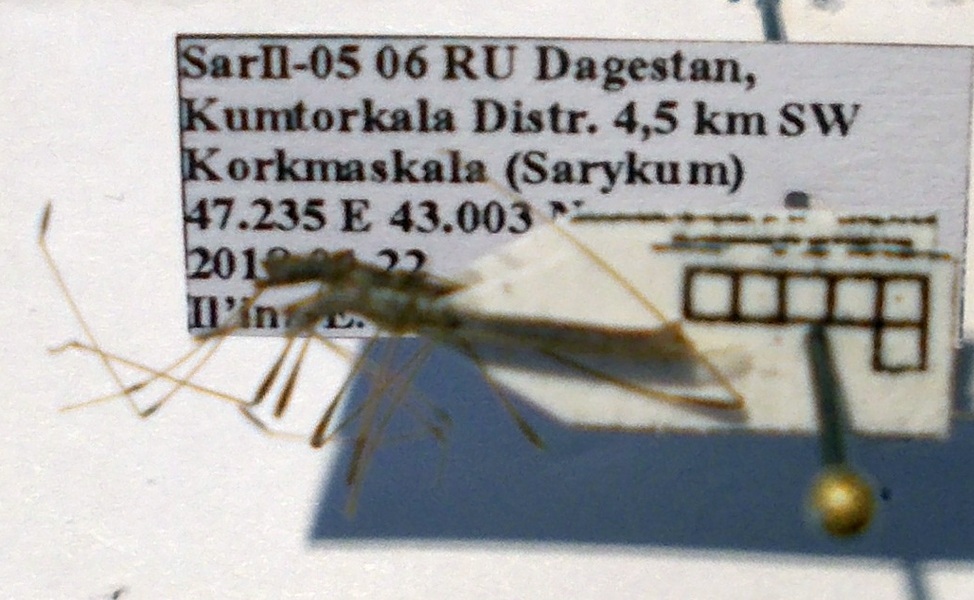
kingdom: Animalia
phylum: Arthropoda
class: Insecta
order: Hemiptera
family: Berytidae
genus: Neides
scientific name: Neides tipularius
